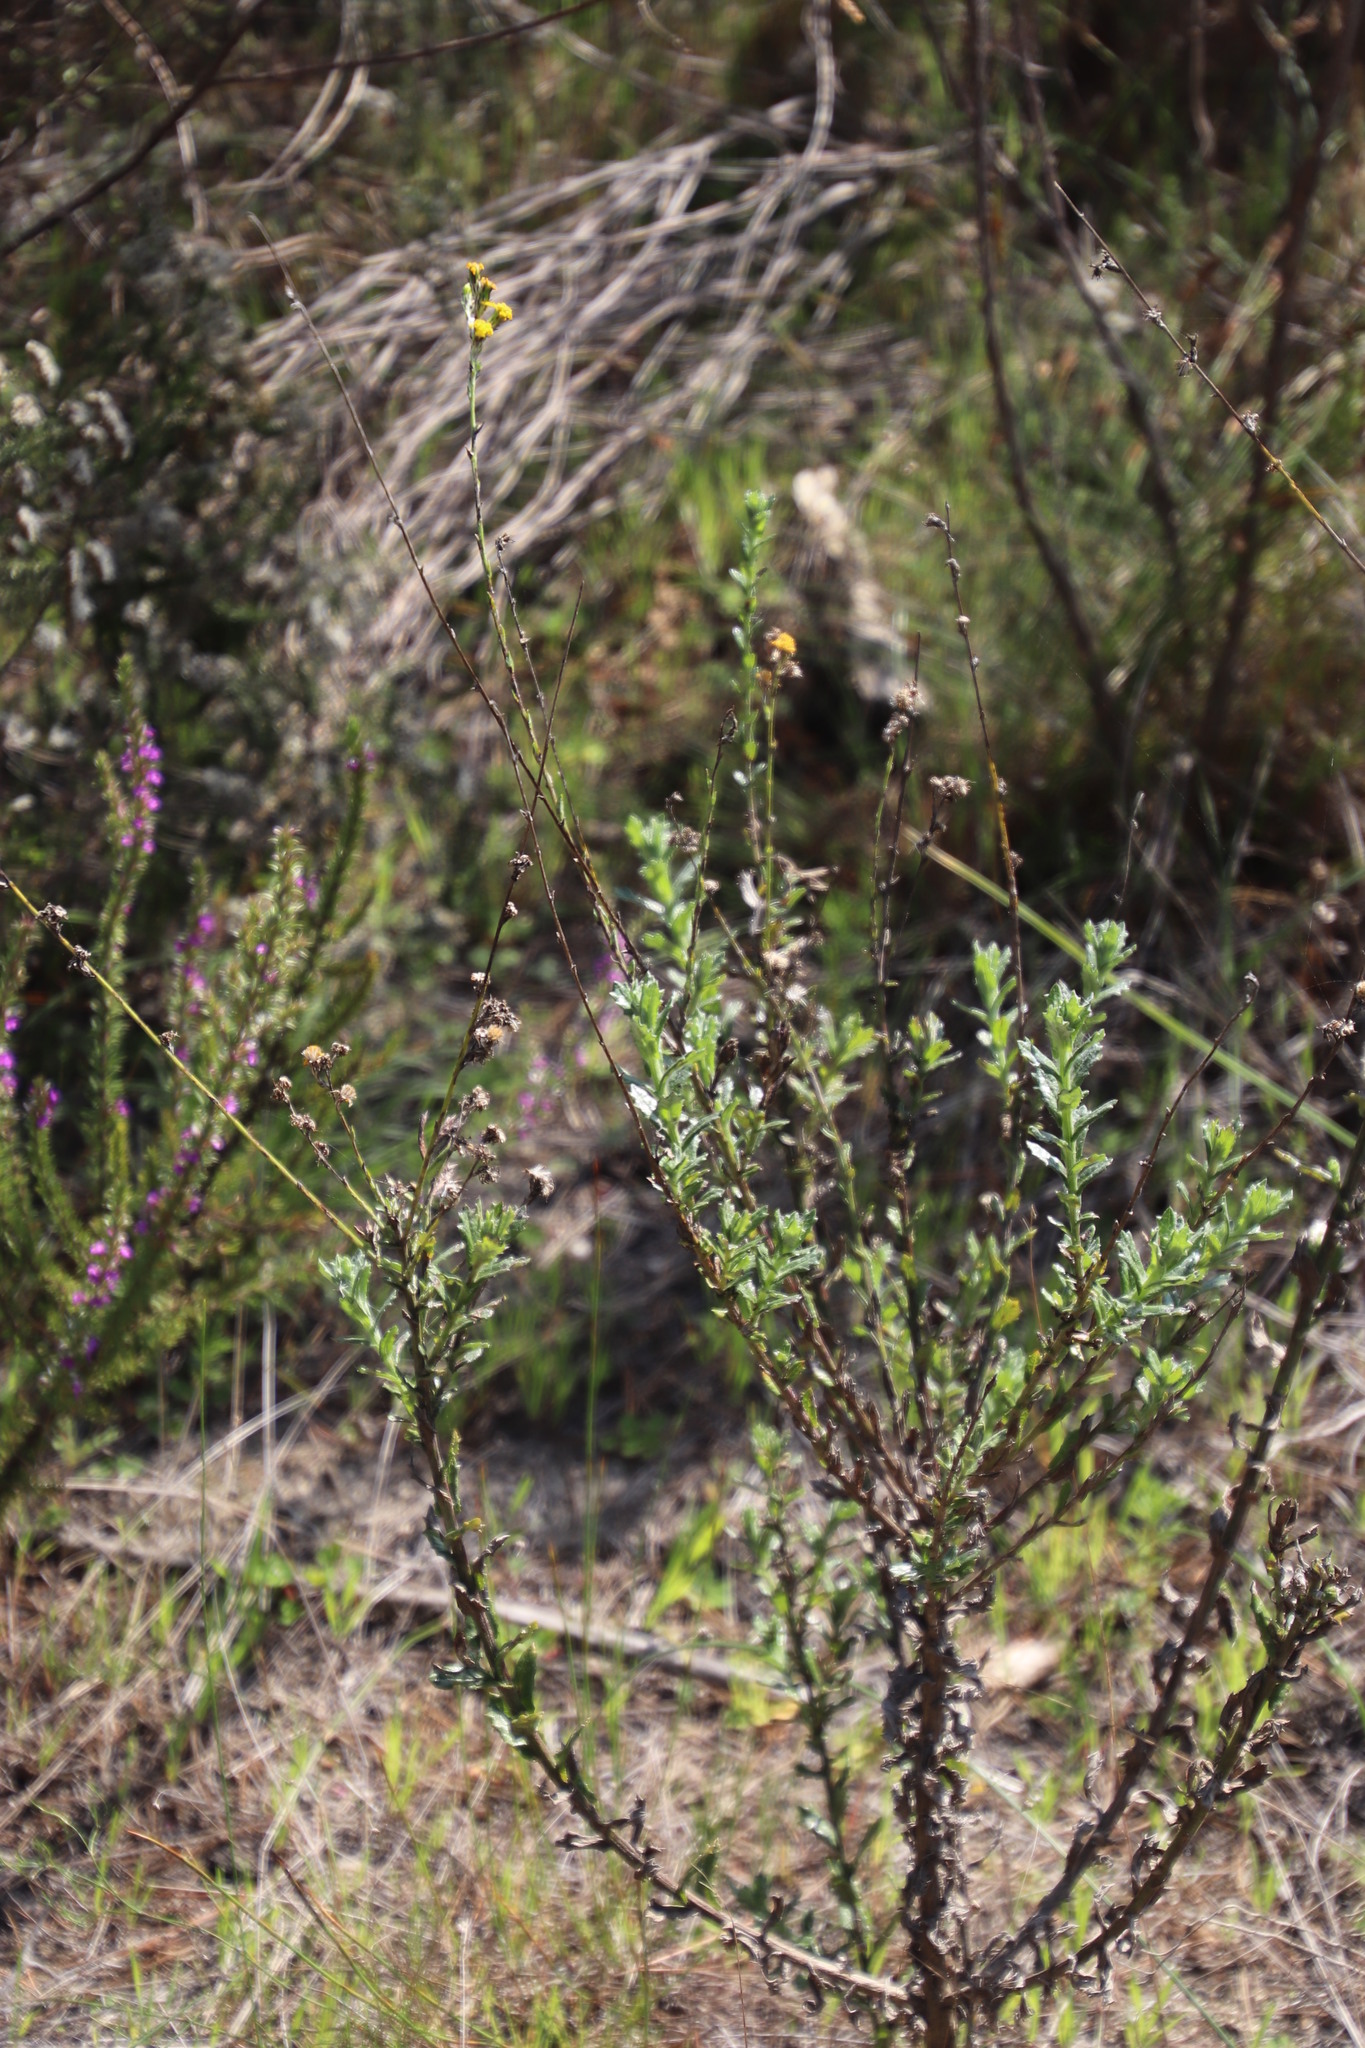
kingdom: Plantae
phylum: Tracheophyta
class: Magnoliopsida
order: Asterales
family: Asteraceae
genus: Senecio
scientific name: Senecio pubigerus
